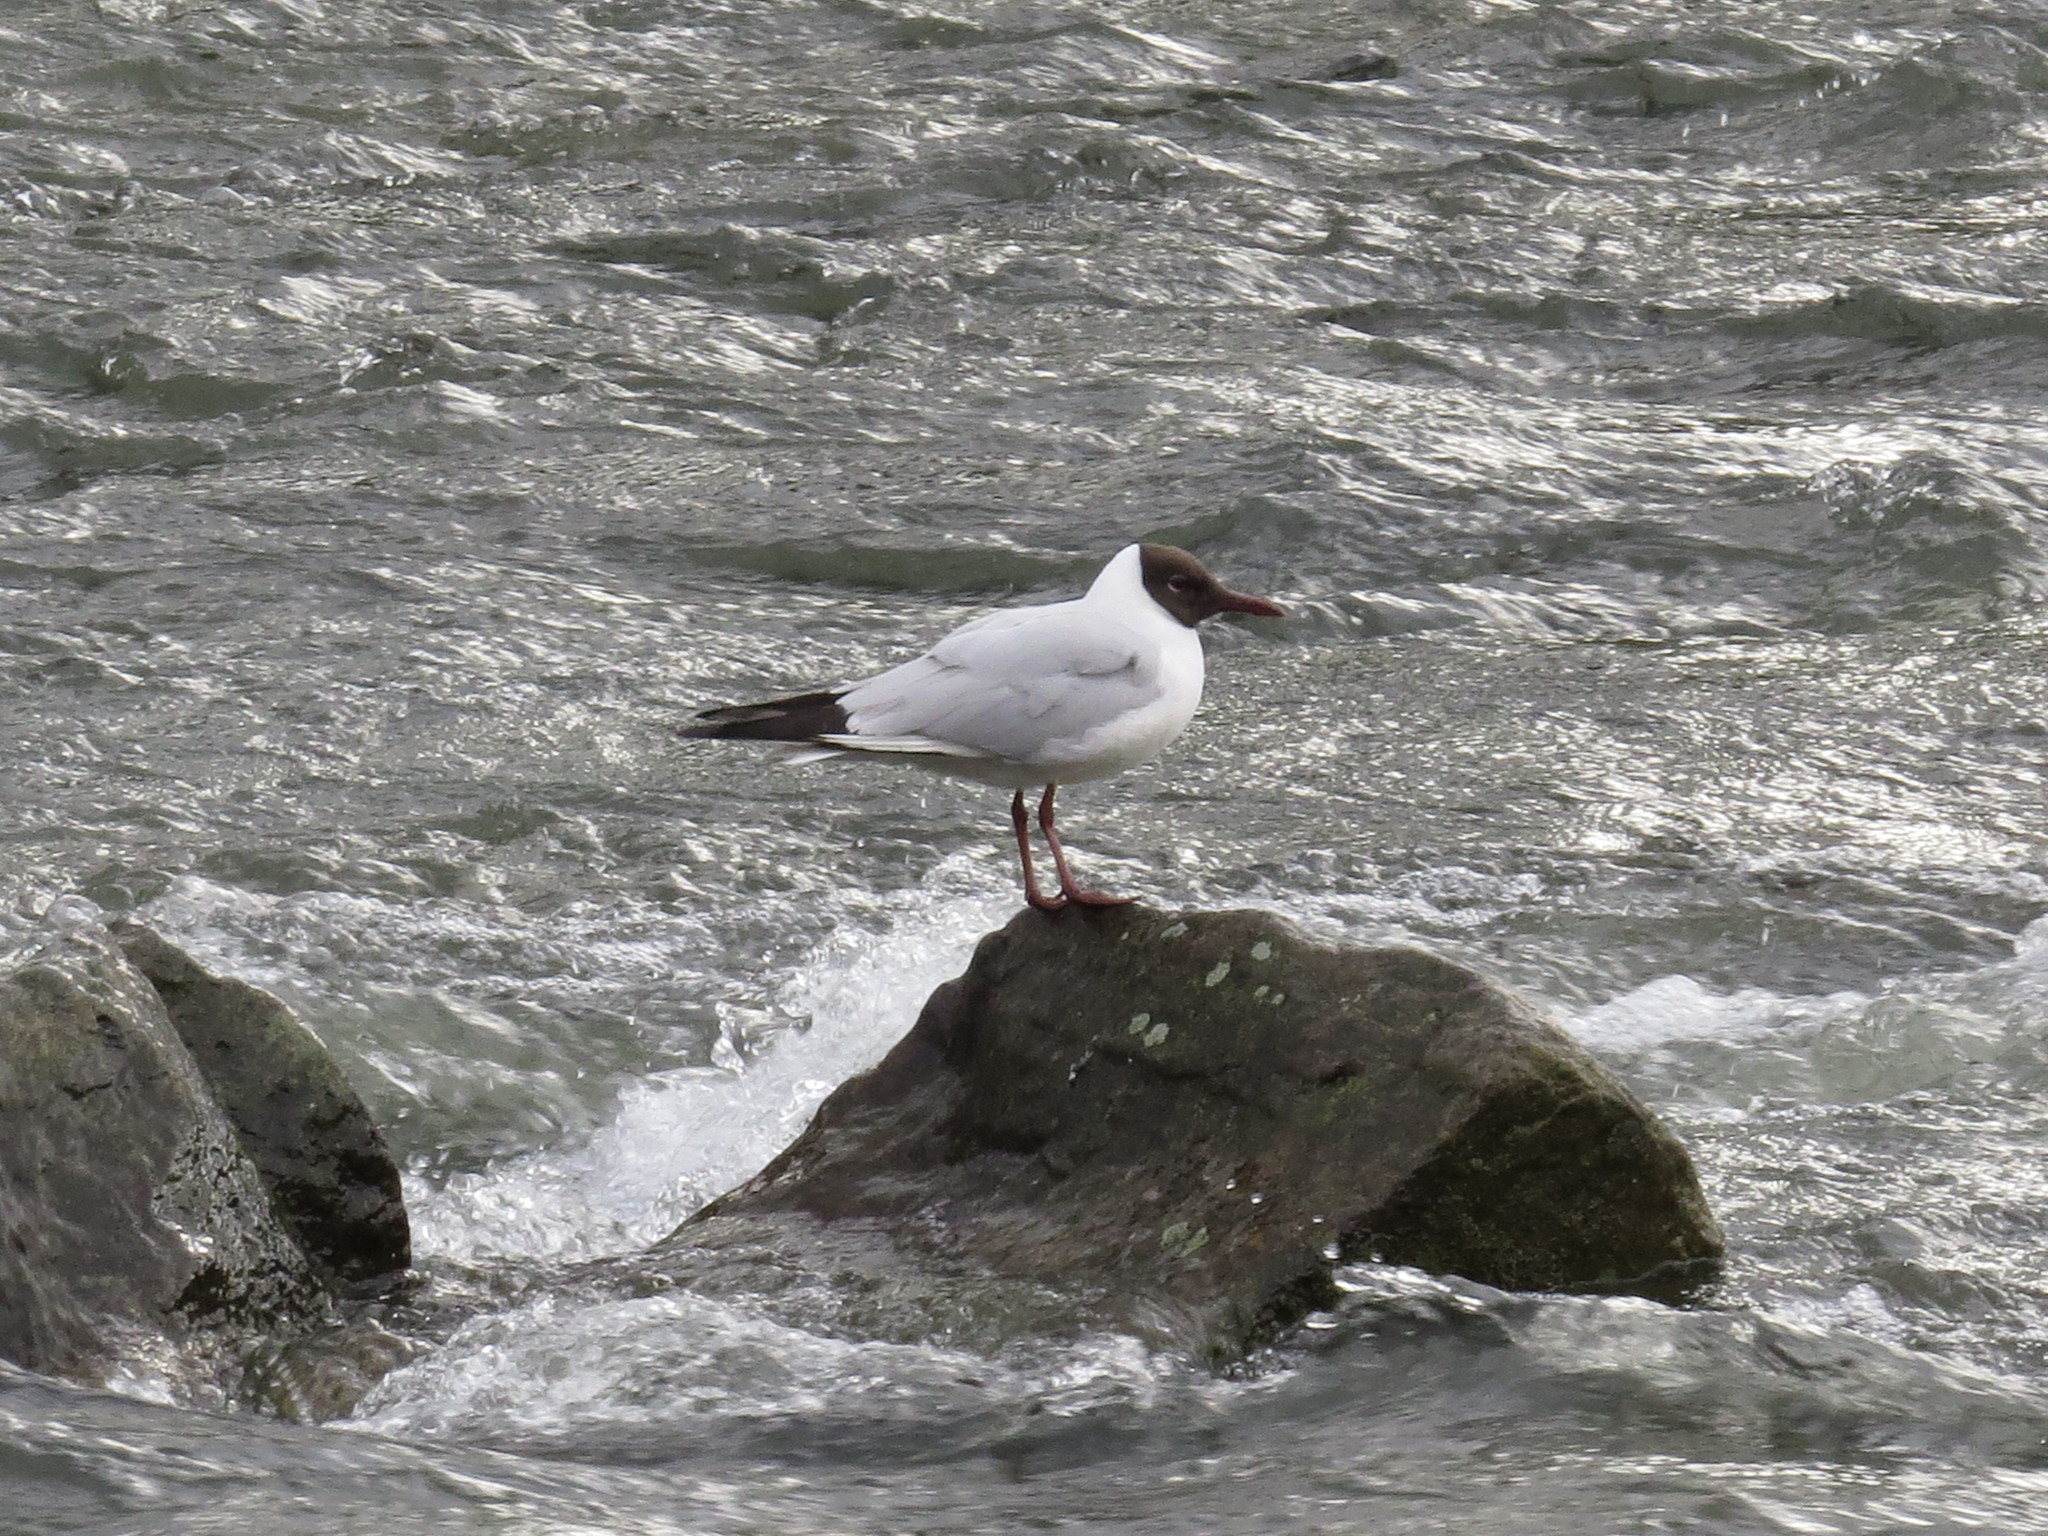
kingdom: Animalia
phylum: Chordata
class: Aves
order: Charadriiformes
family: Laridae
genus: Chroicocephalus
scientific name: Chroicocephalus ridibundus
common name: Black-headed gull
